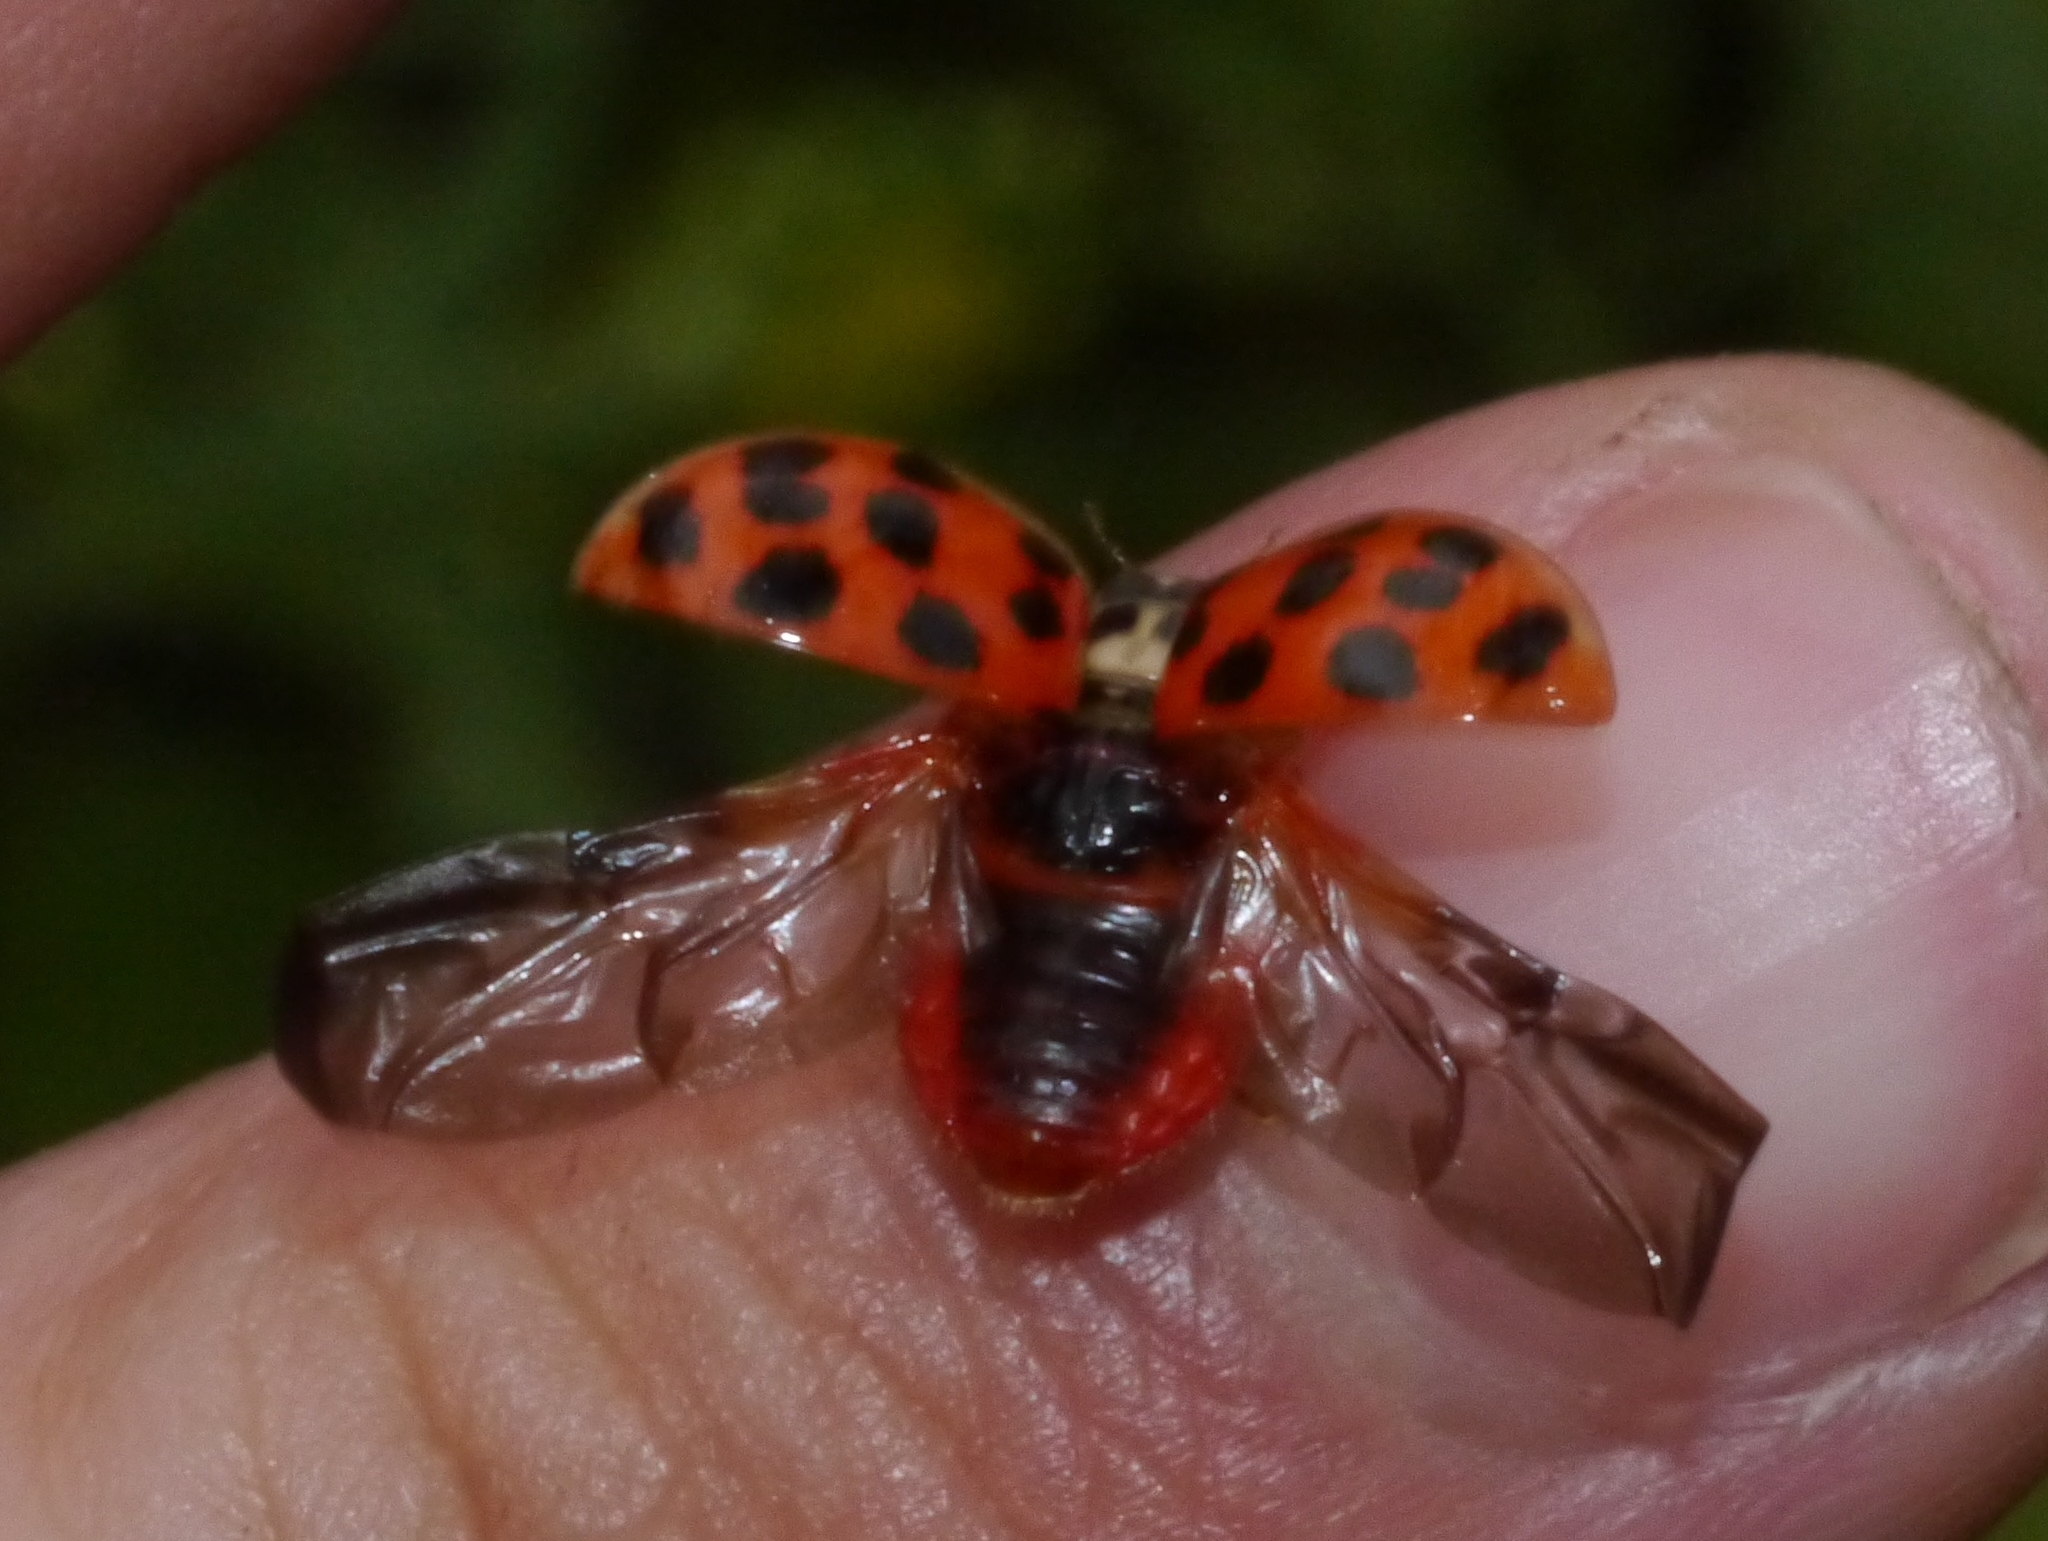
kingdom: Animalia
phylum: Arthropoda
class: Insecta
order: Coleoptera
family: Coccinellidae
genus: Harmonia
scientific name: Harmonia axyridis
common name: Harlequin ladybird
